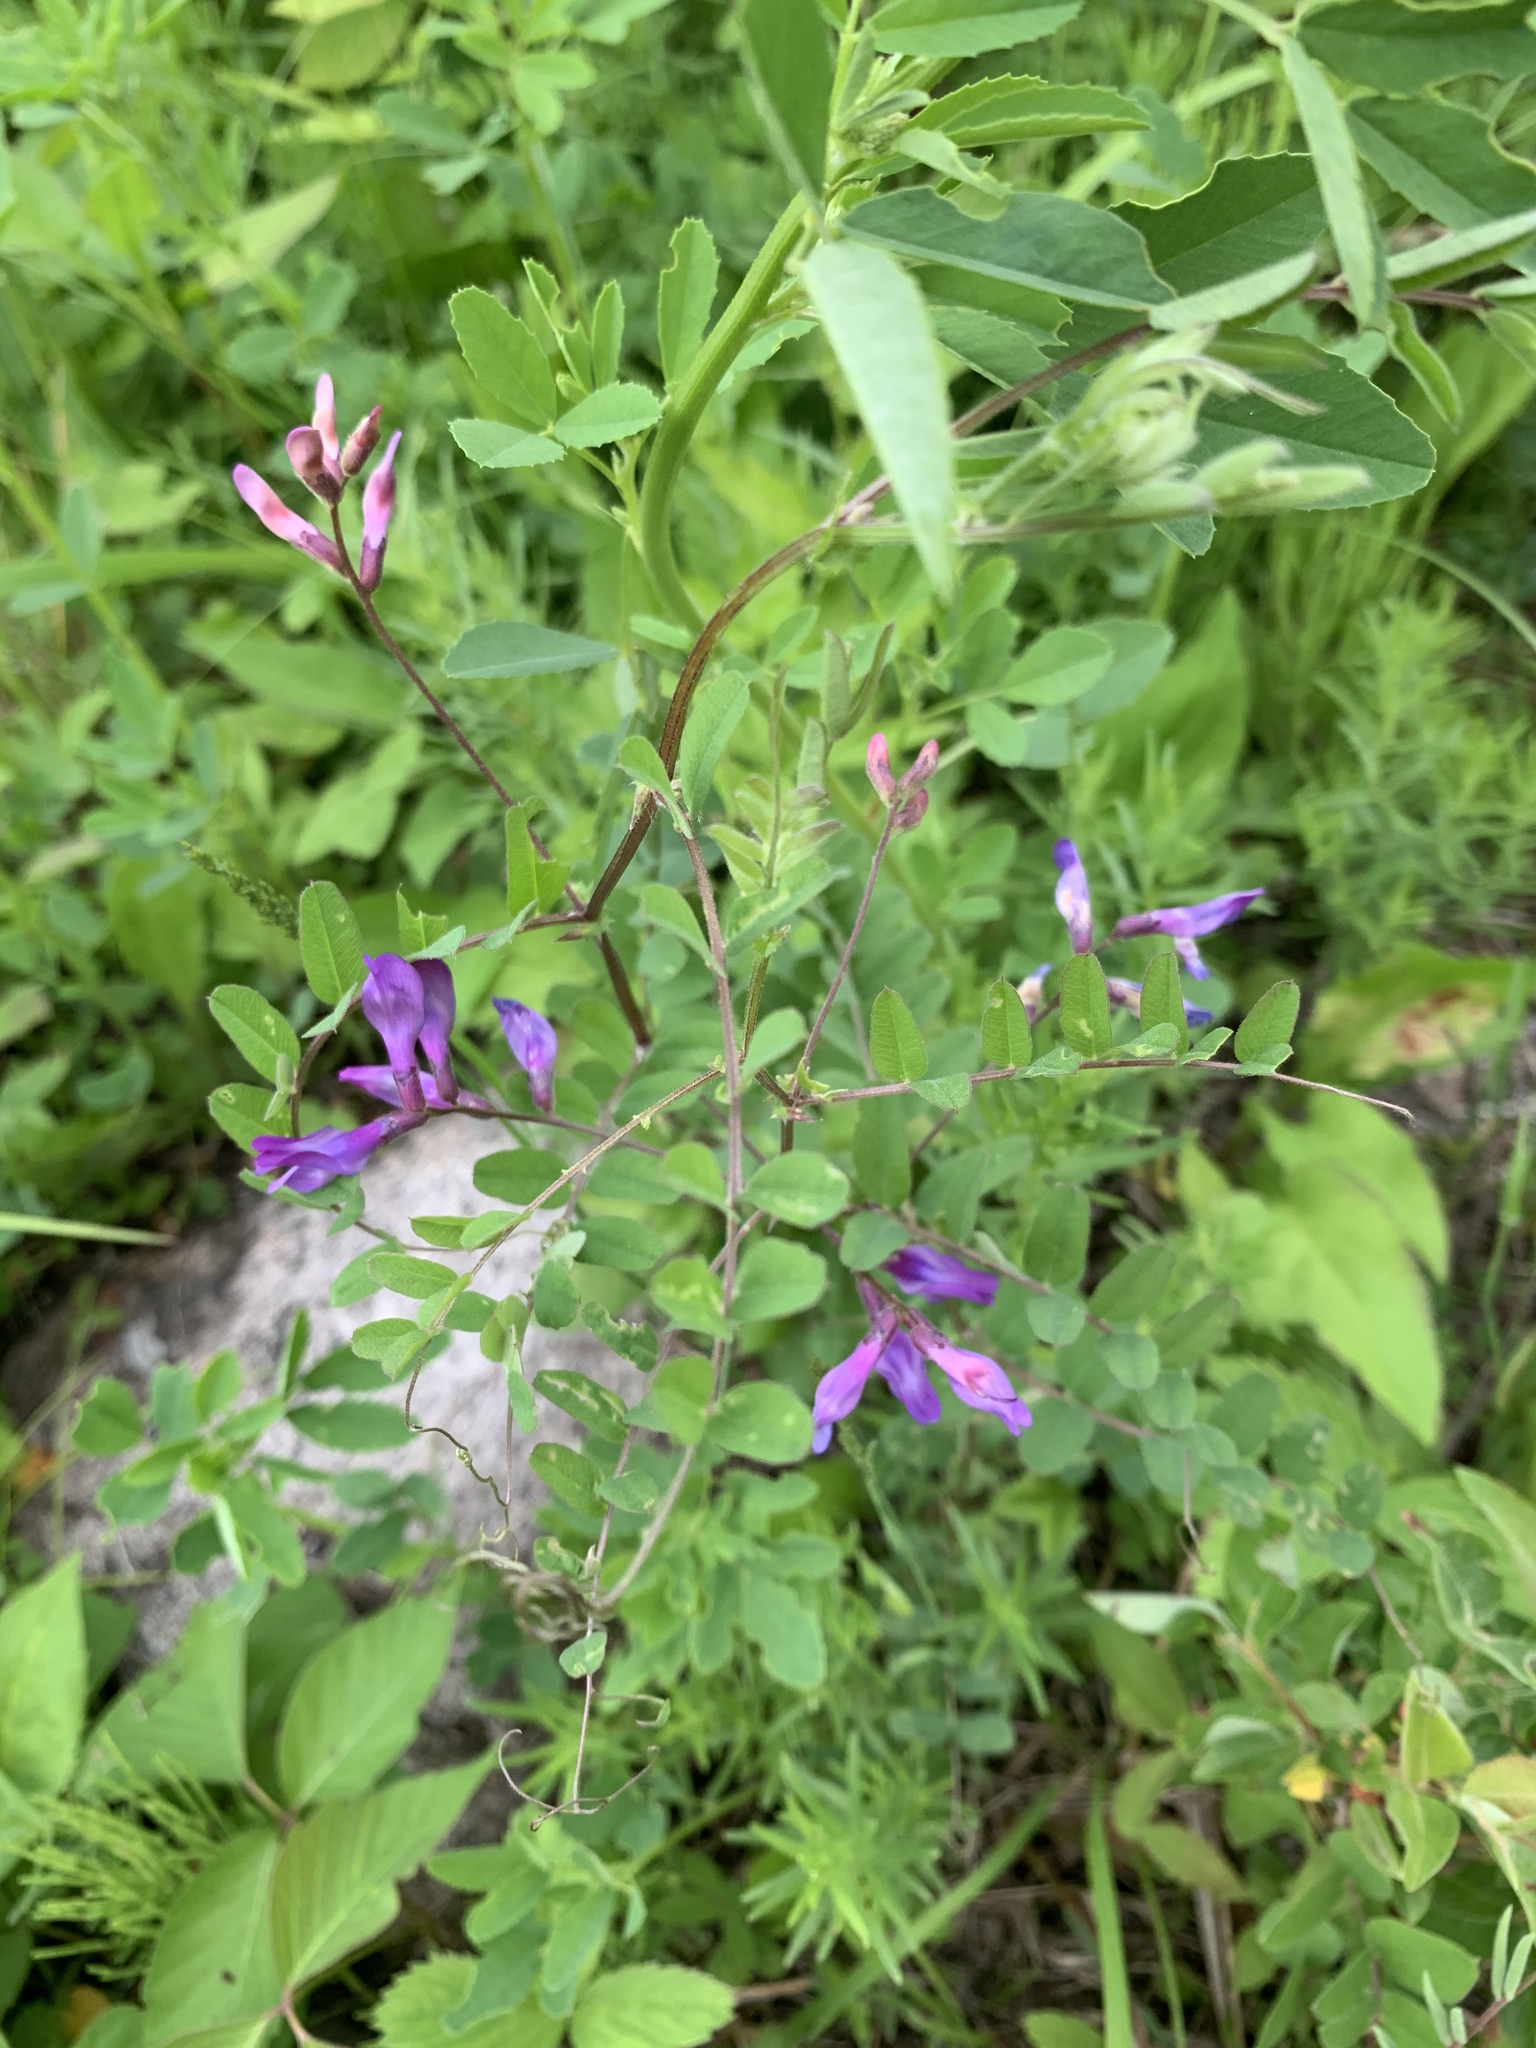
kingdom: Plantae
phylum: Tracheophyta
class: Magnoliopsida
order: Fabales
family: Fabaceae
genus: Vicia
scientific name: Vicia americana
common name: American vetch
